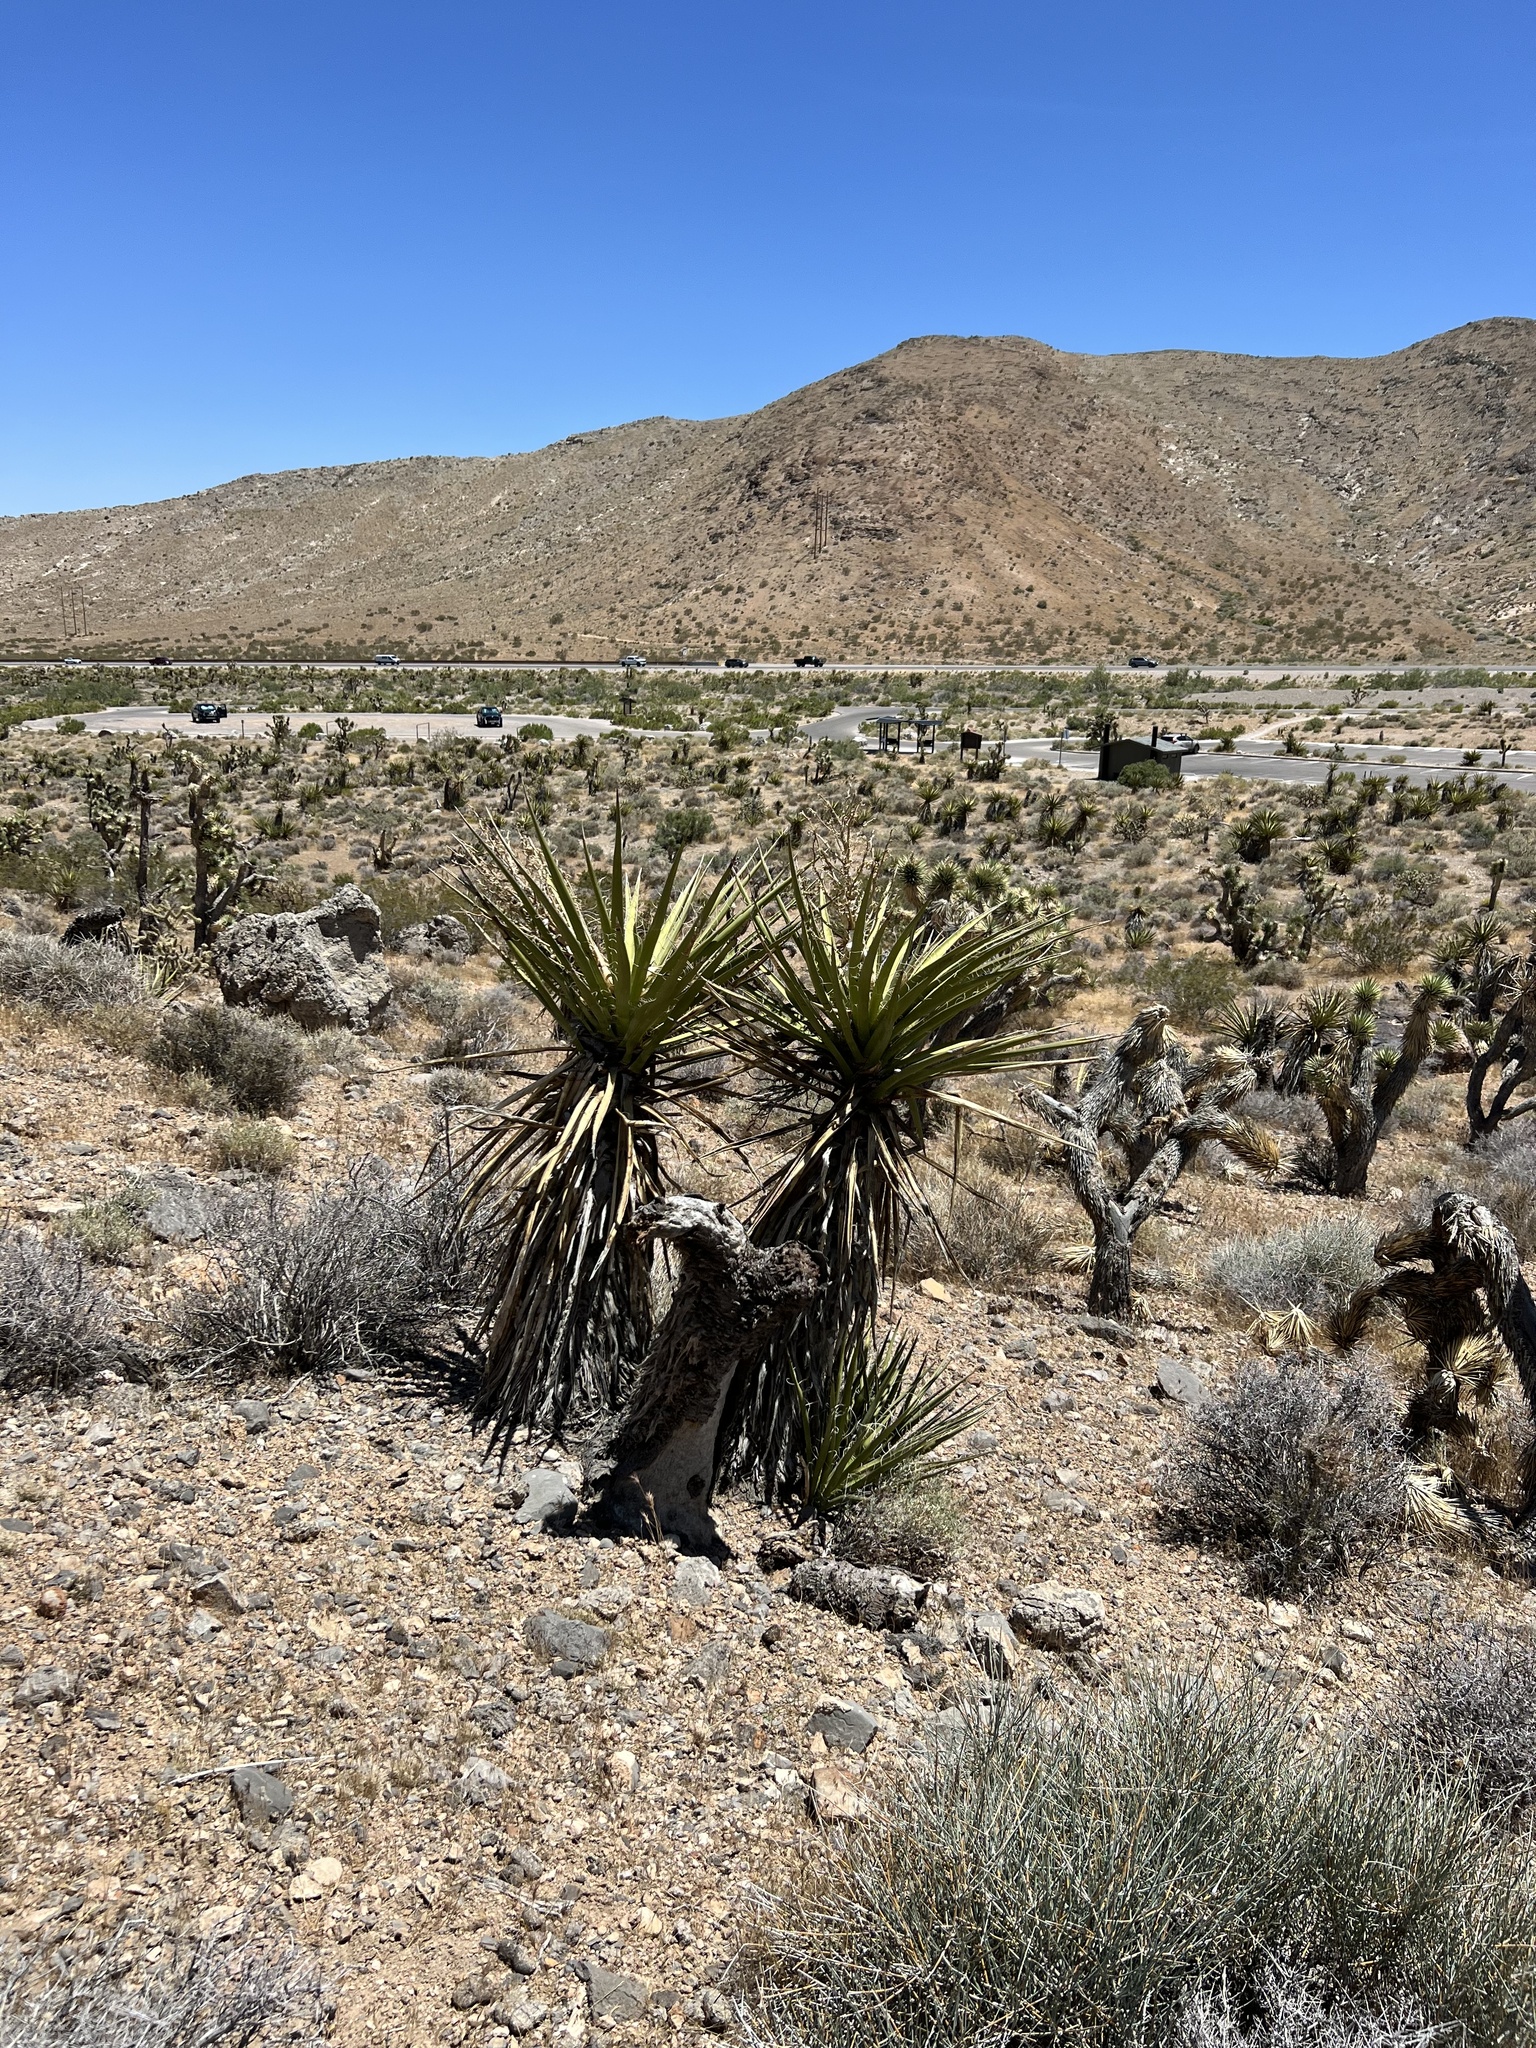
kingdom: Plantae
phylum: Tracheophyta
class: Liliopsida
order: Asparagales
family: Asparagaceae
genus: Yucca
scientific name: Yucca schidigera
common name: Mojave yucca
